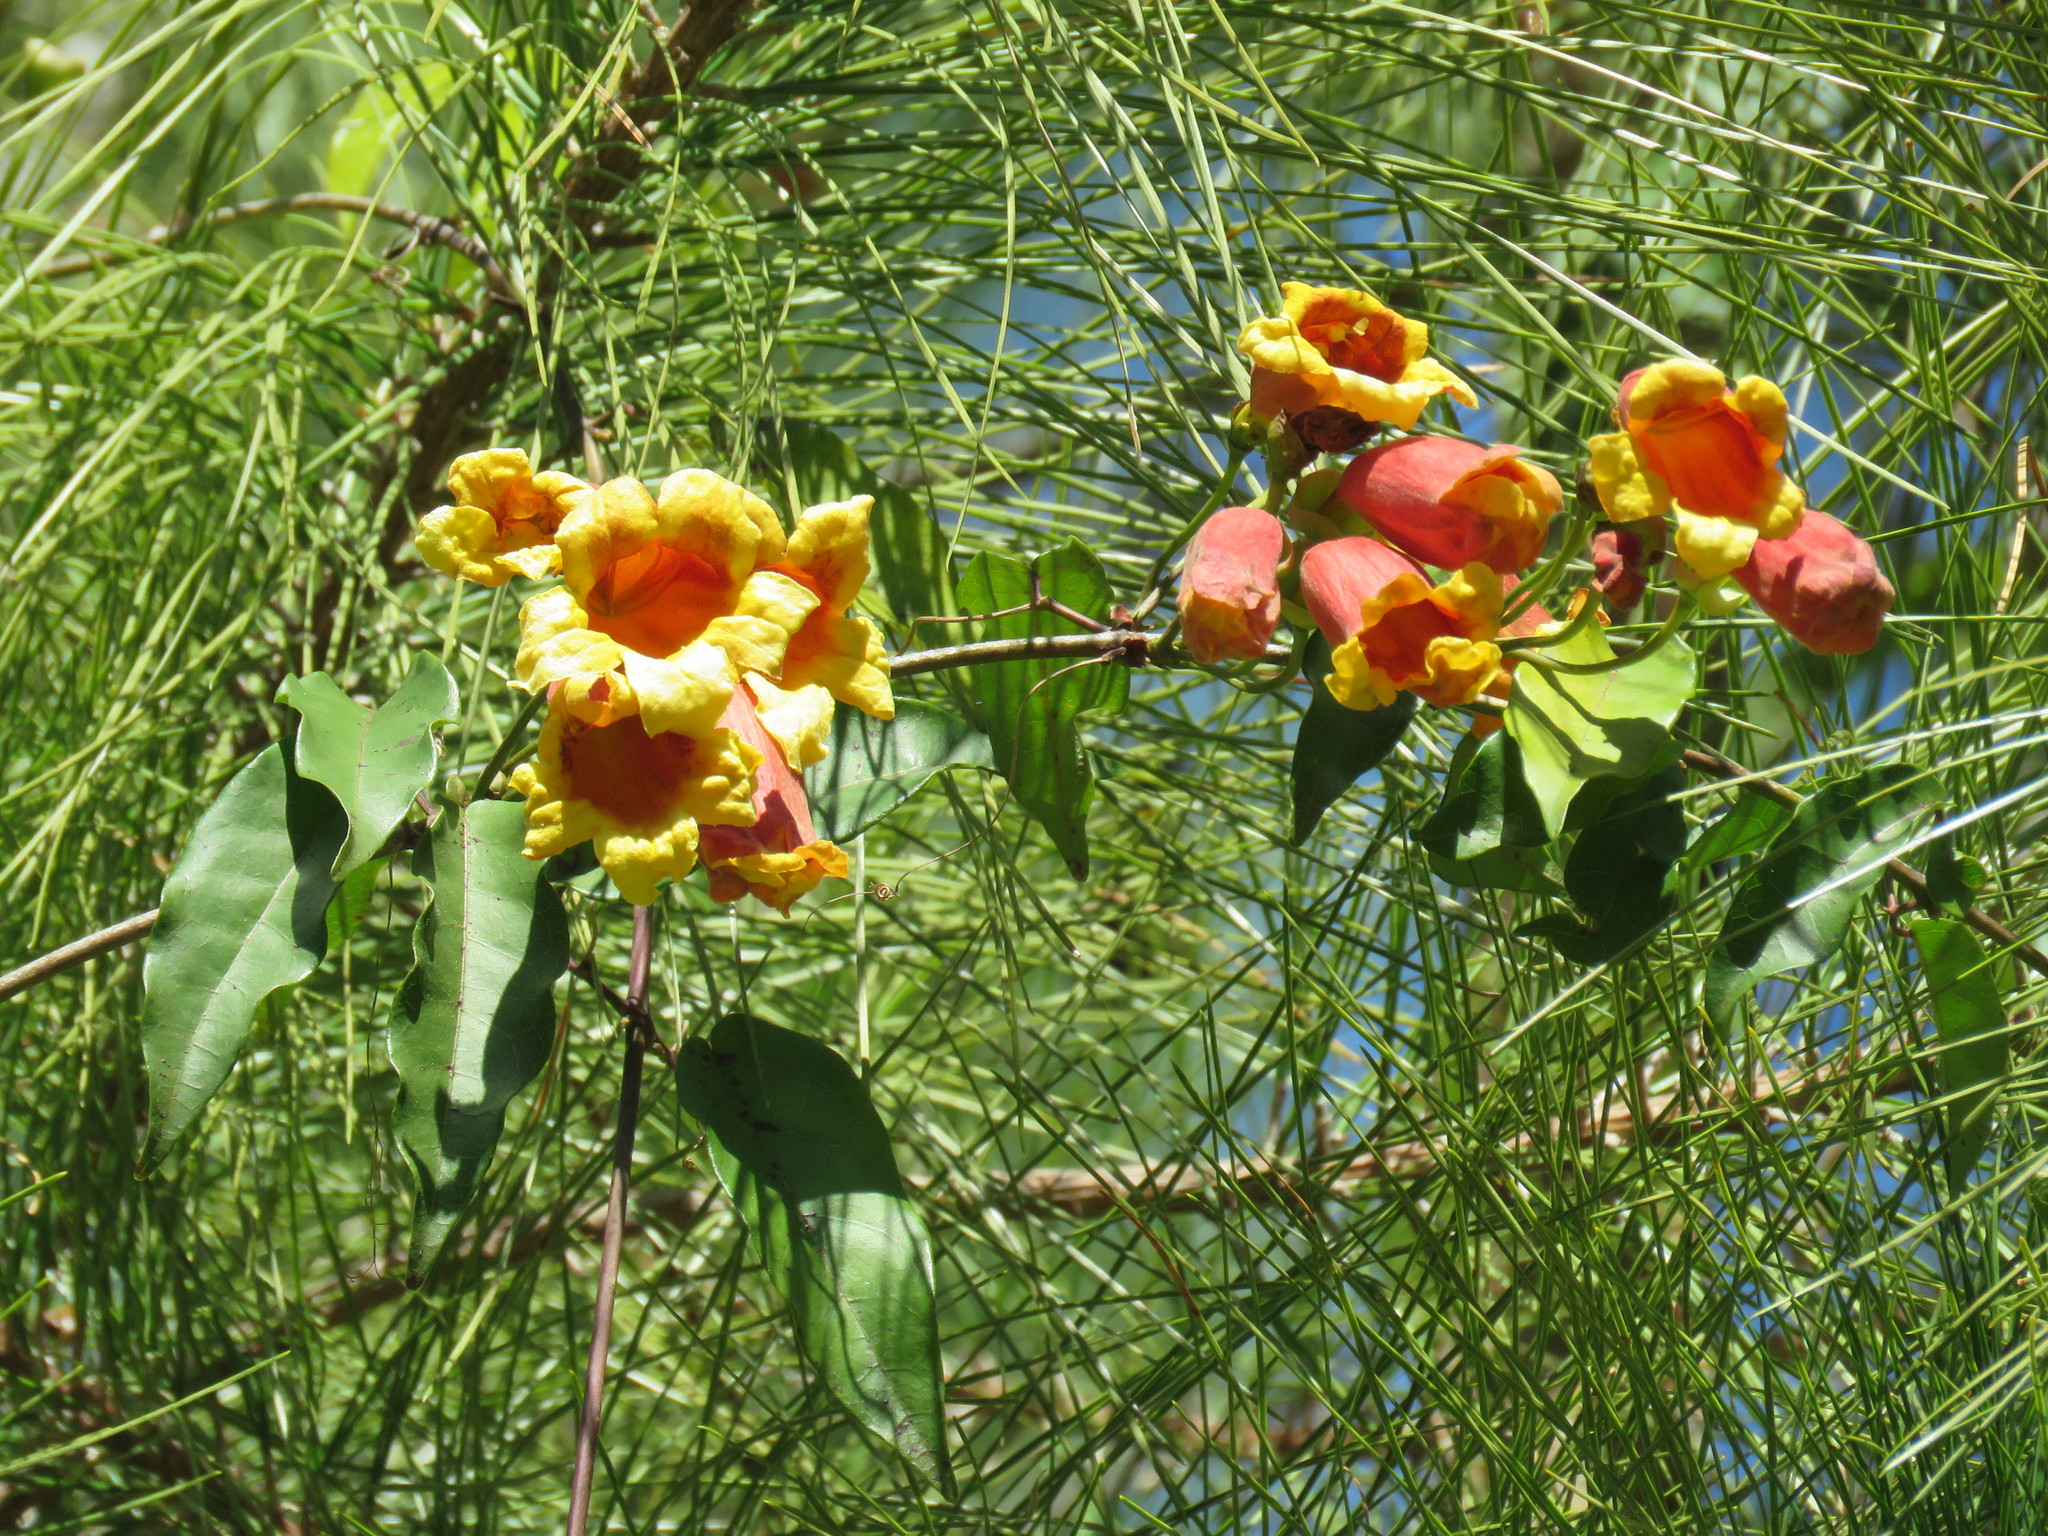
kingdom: Plantae
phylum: Tracheophyta
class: Magnoliopsida
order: Lamiales
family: Bignoniaceae
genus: Bignonia
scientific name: Bignonia capreolata
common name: Crossvine
